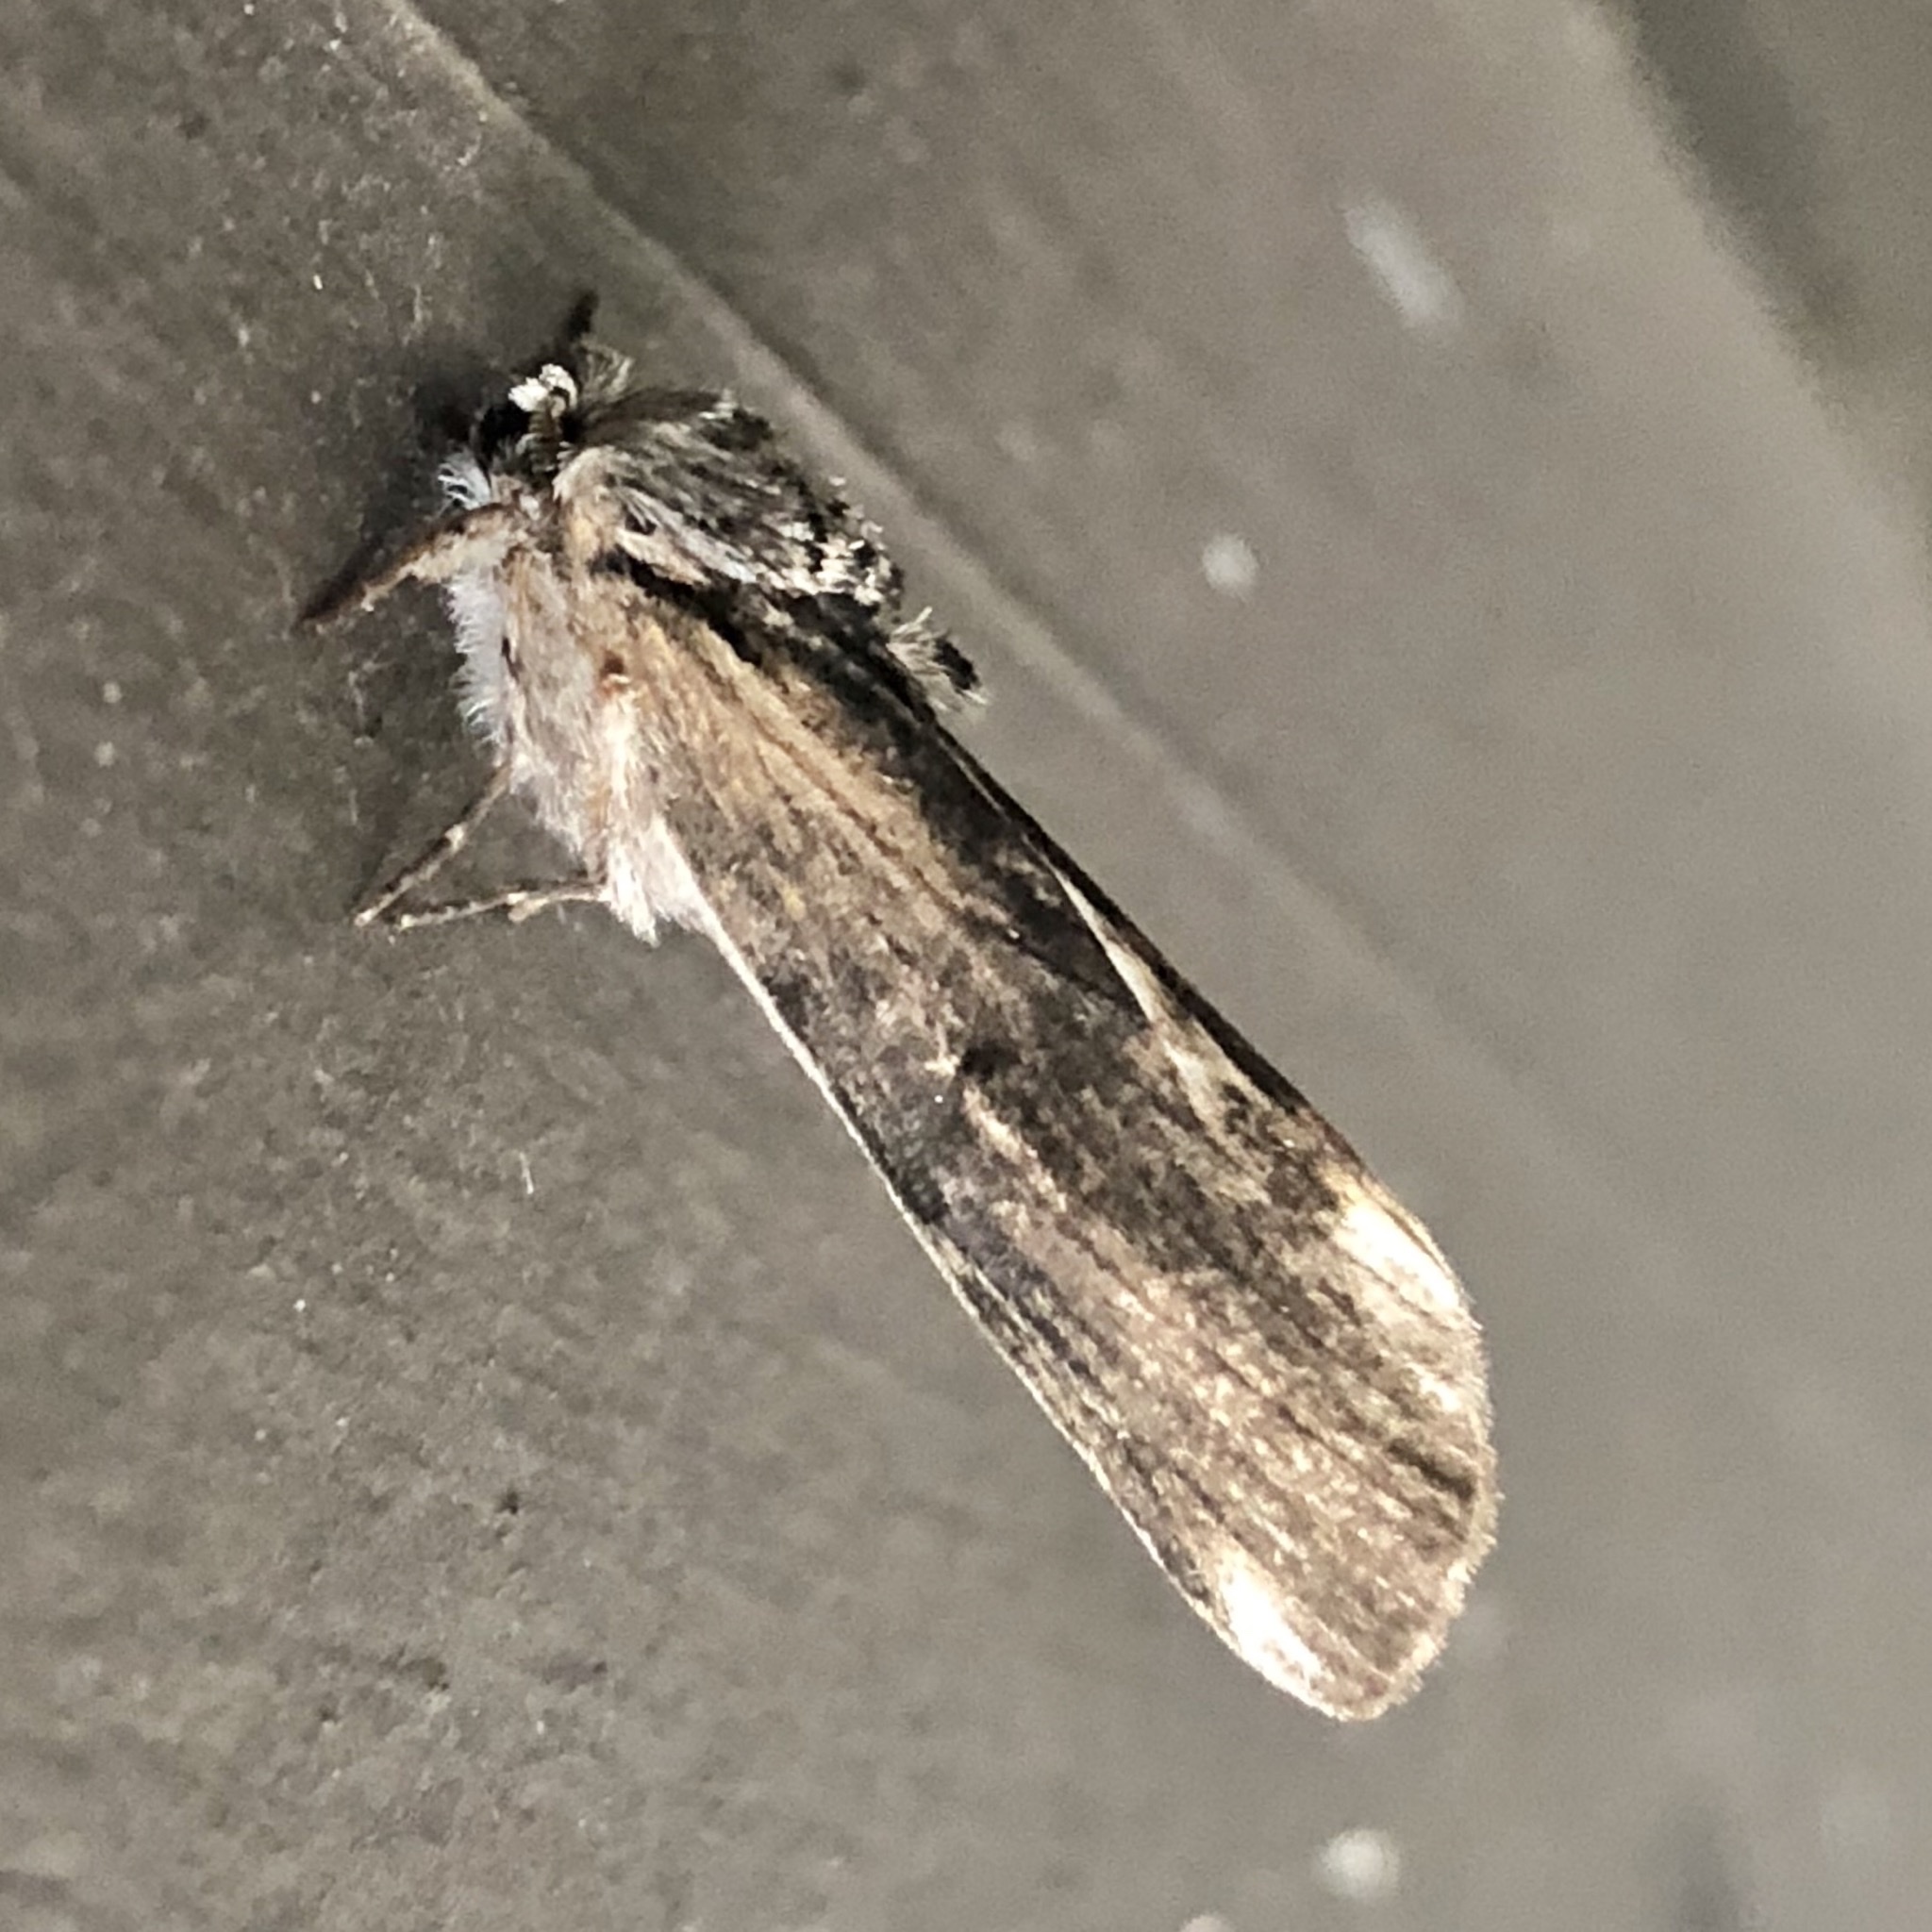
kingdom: Animalia
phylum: Arthropoda
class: Insecta
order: Lepidoptera
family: Notodontidae
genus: Schizura
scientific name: Schizura
